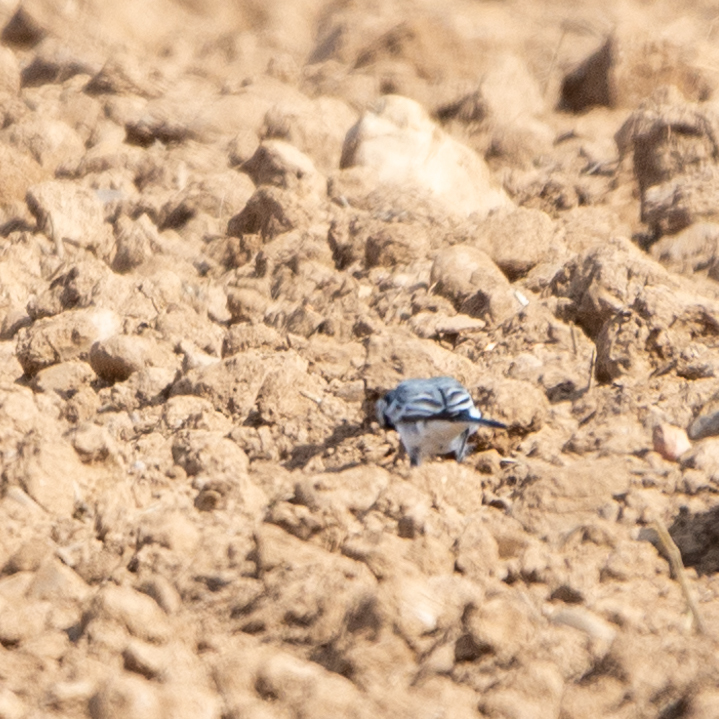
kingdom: Animalia
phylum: Chordata
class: Aves
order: Passeriformes
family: Motacillidae
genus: Motacilla
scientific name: Motacilla alba
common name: White wagtail
